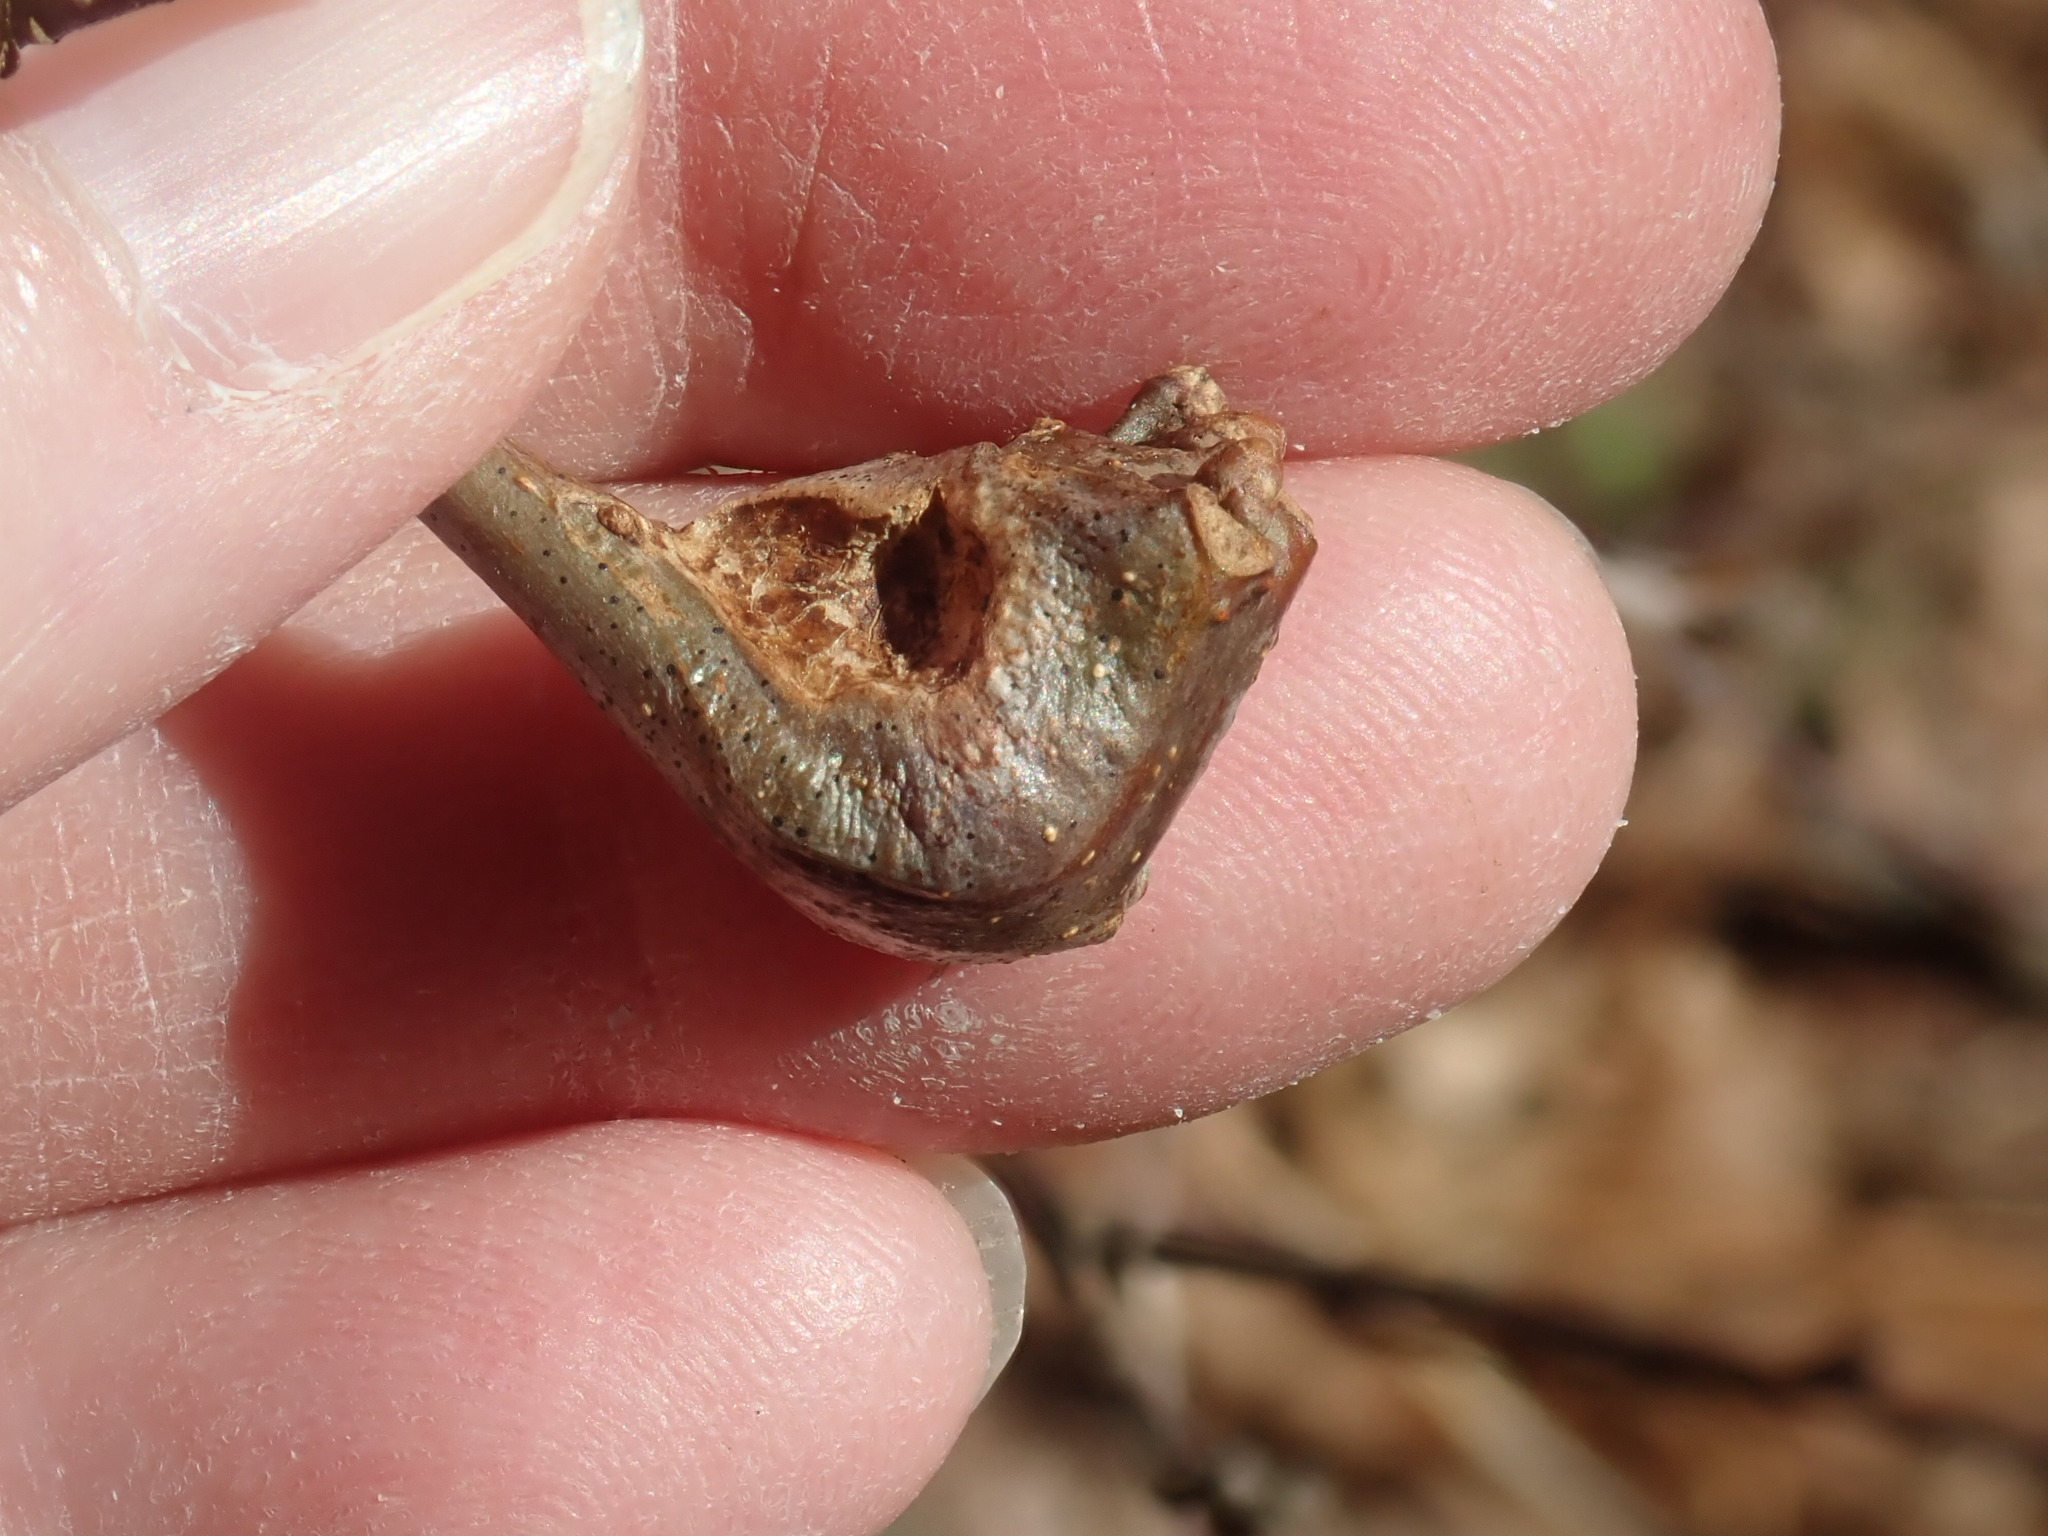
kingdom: Animalia
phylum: Arthropoda
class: Insecta
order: Hymenoptera
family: Cynipidae
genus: Callirhytis
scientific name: Callirhytis clavula
